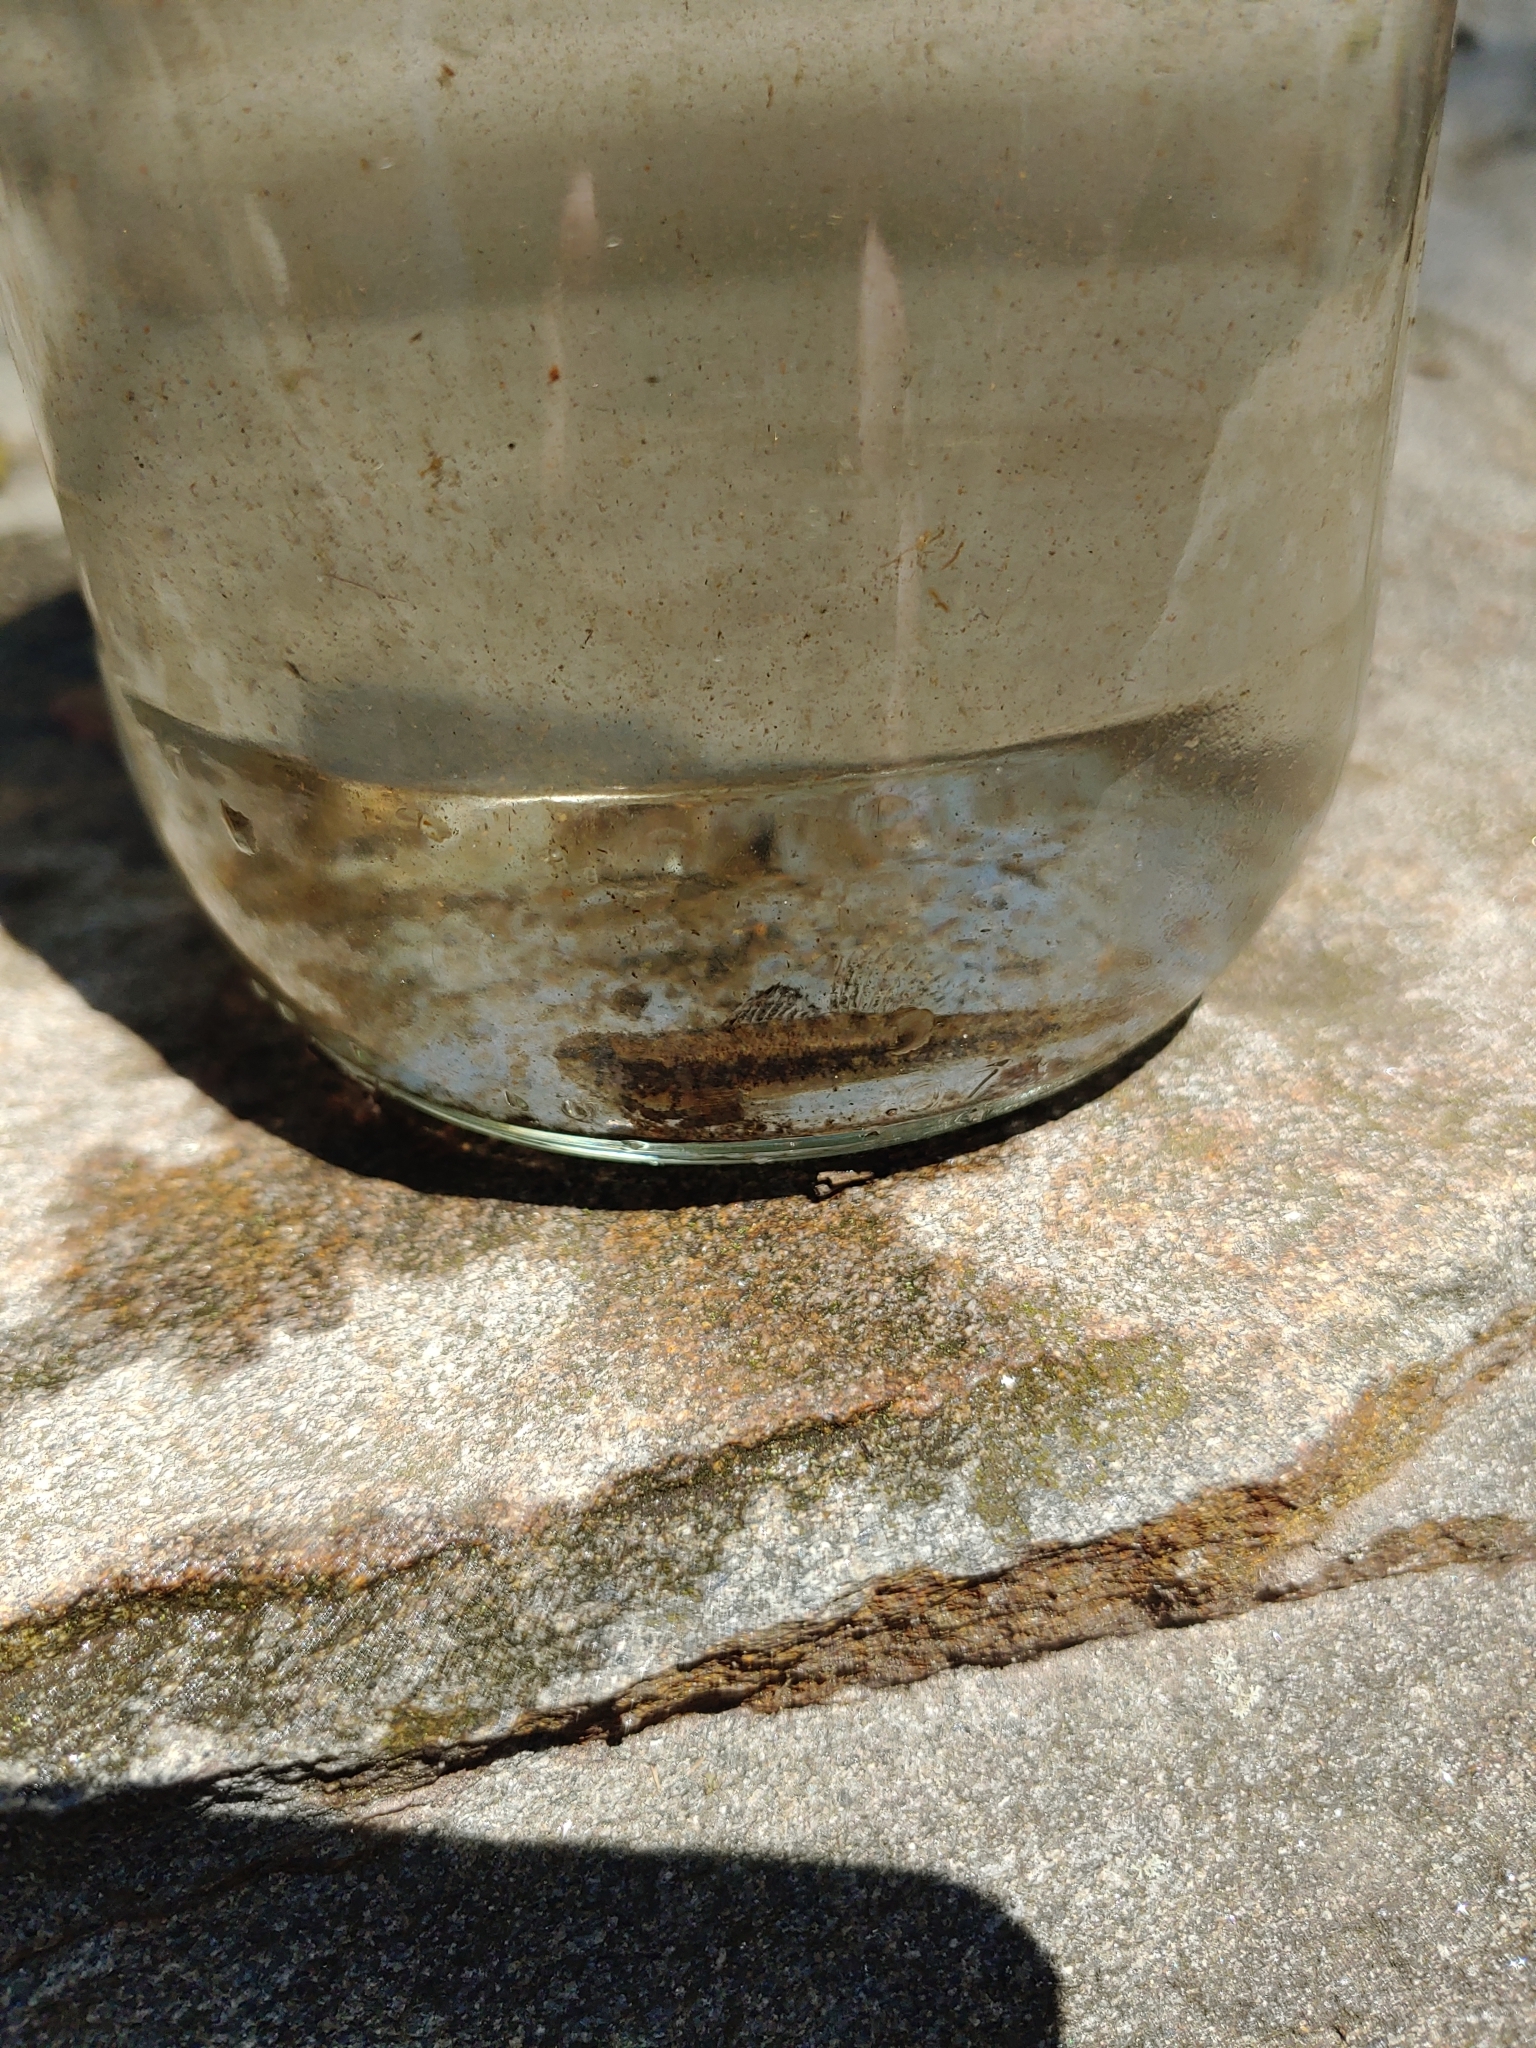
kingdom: Animalia
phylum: Chordata
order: Perciformes
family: Percidae
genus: Etheostoma
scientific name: Etheostoma fusiforme
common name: Swamp darter
